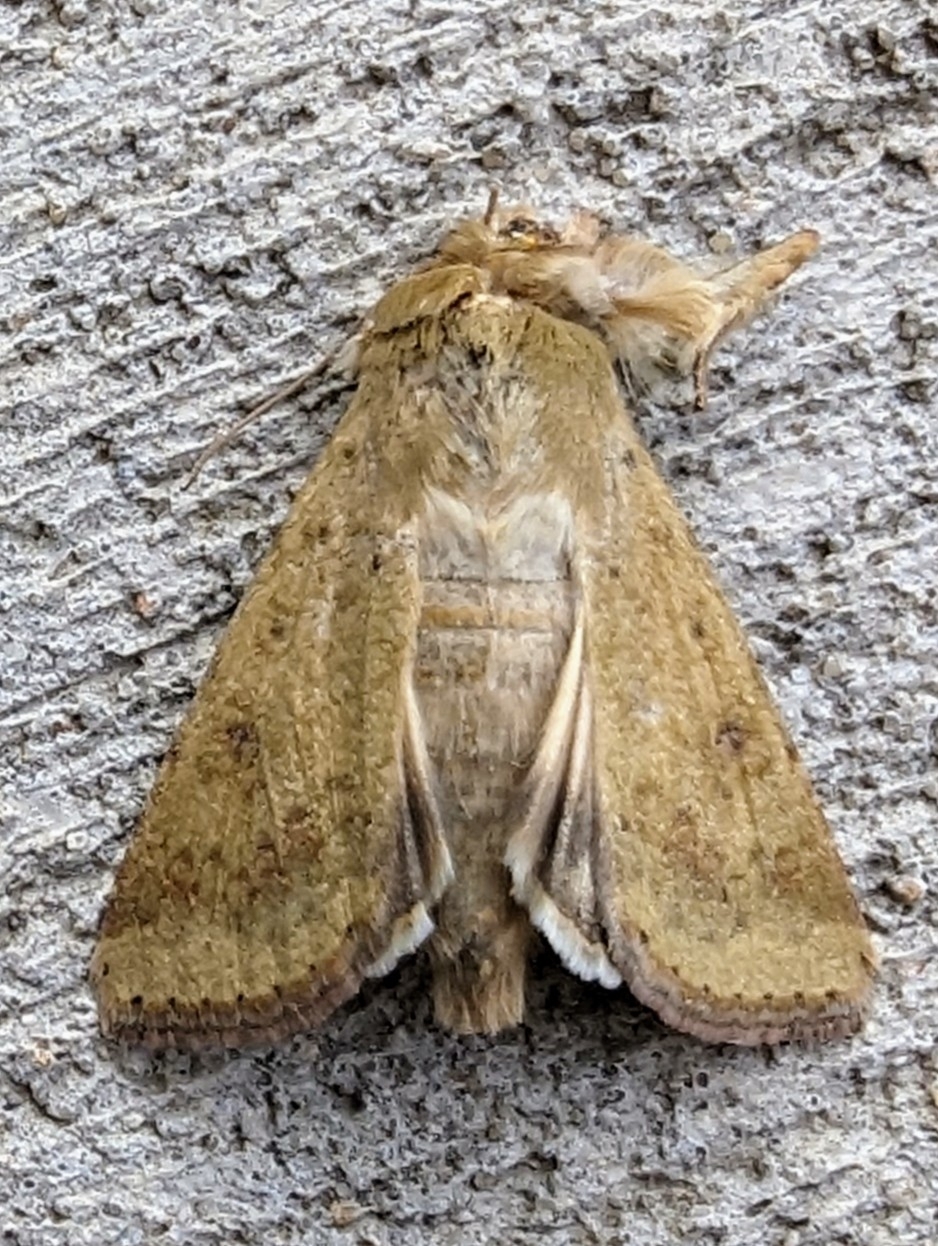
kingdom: Animalia
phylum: Arthropoda
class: Insecta
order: Lepidoptera
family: Noctuidae
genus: Helicoverpa
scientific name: Helicoverpa zea
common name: Bollworm
